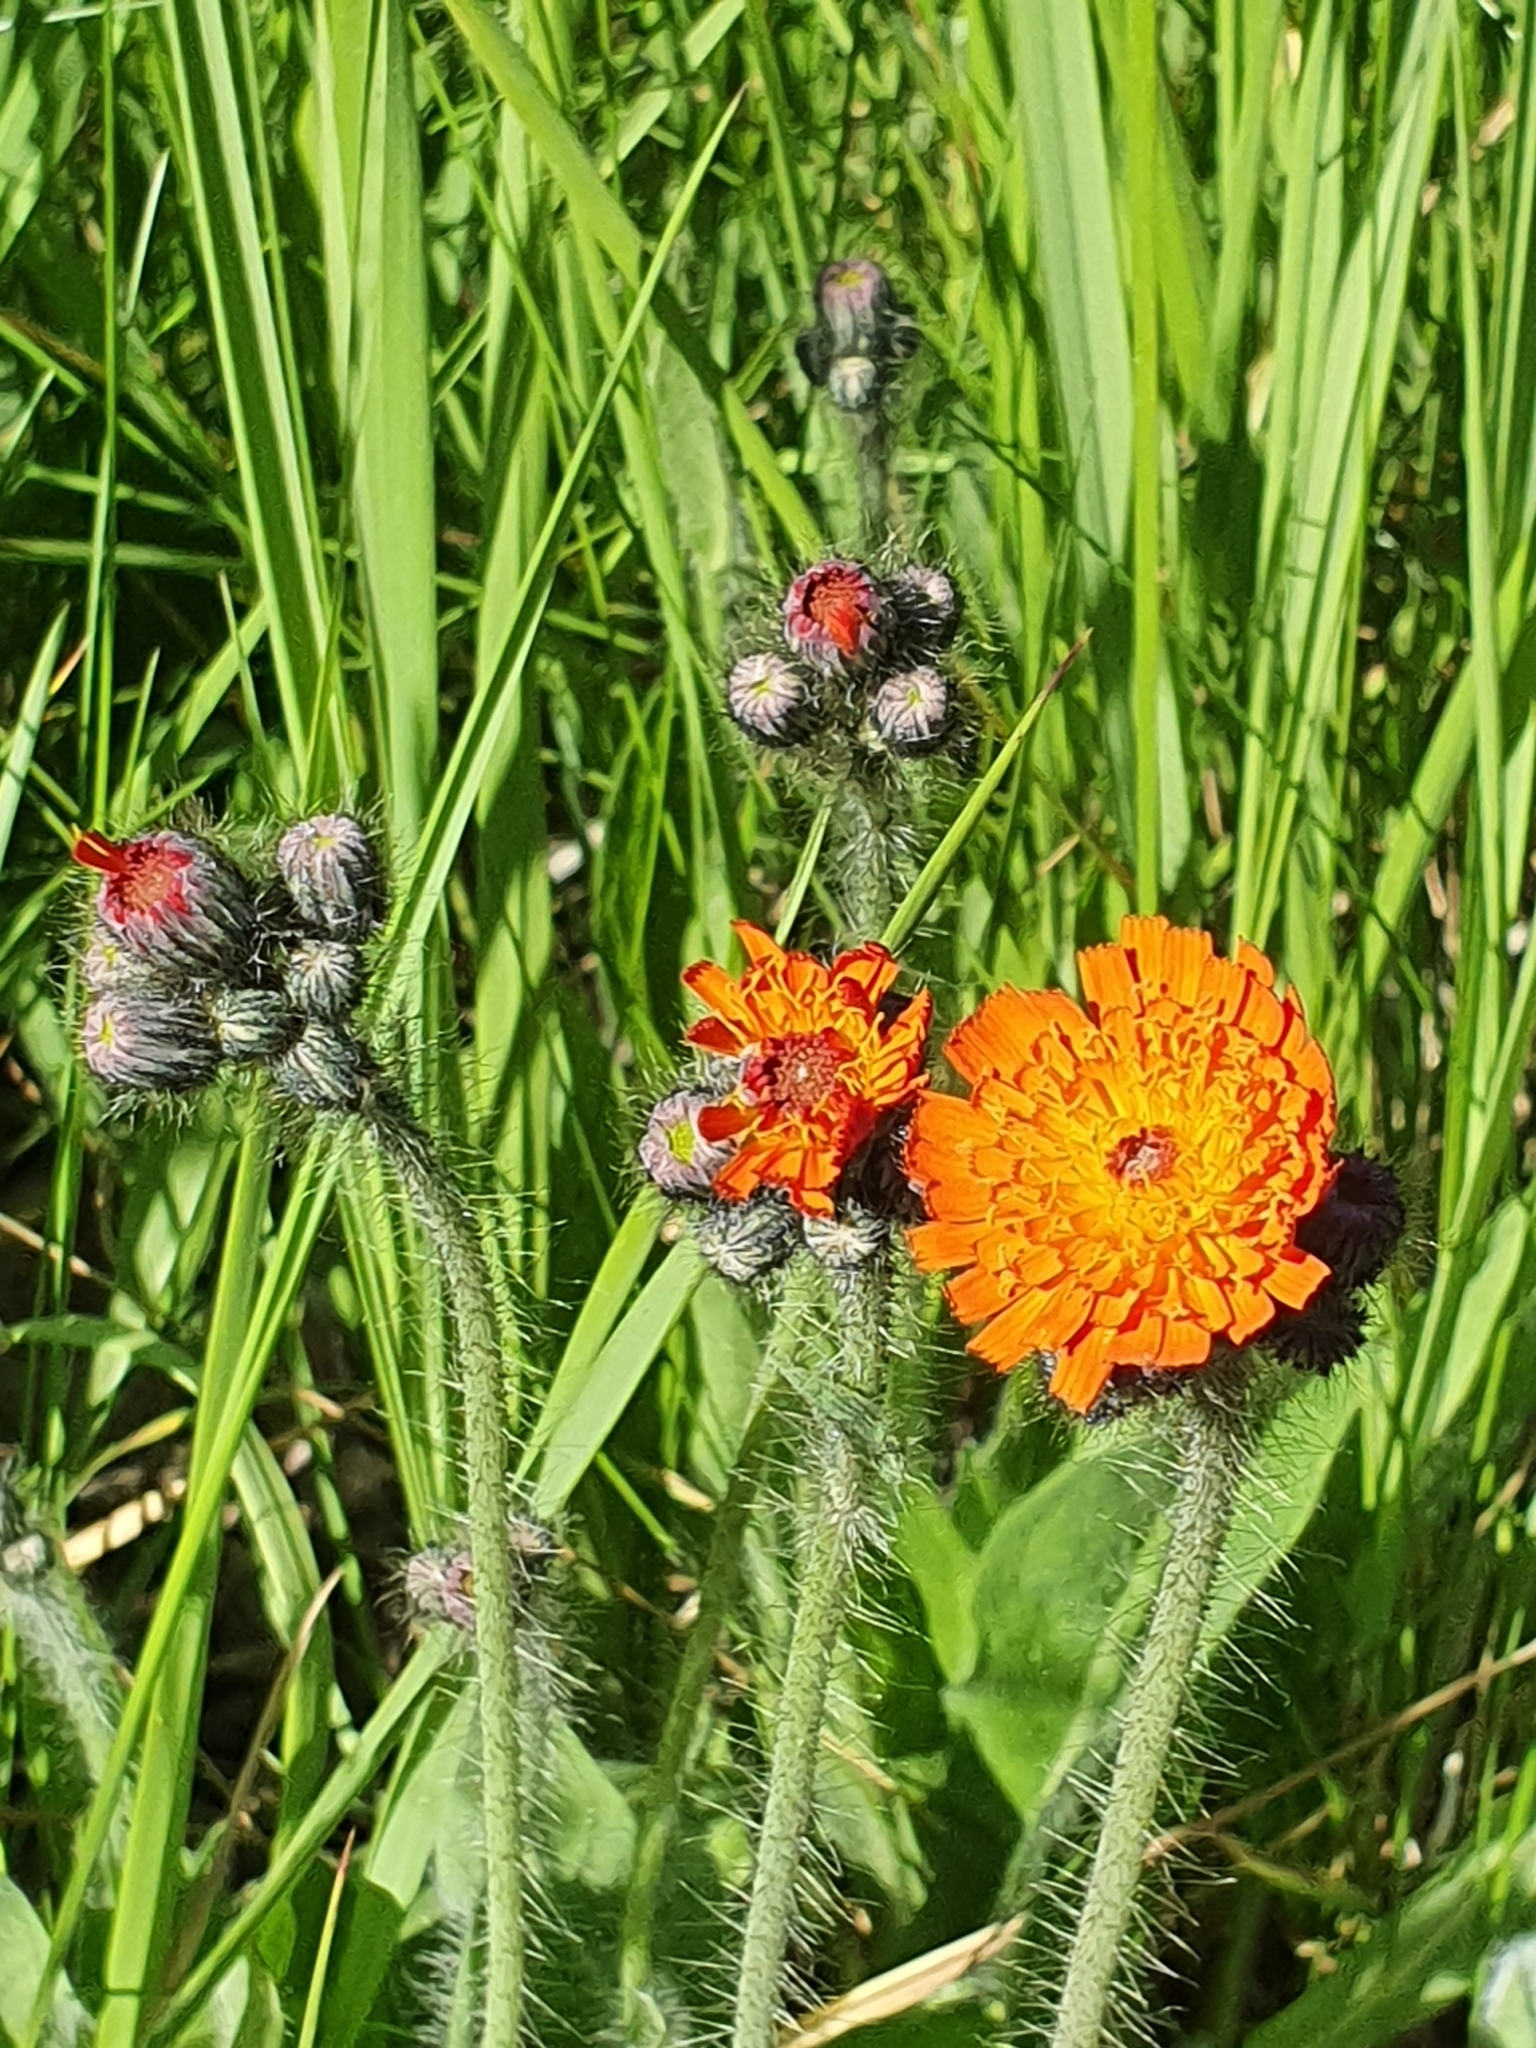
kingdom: Plantae
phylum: Tracheophyta
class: Magnoliopsida
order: Asterales
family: Asteraceae
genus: Pilosella
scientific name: Pilosella aurantiaca
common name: Fox-and-cubs
